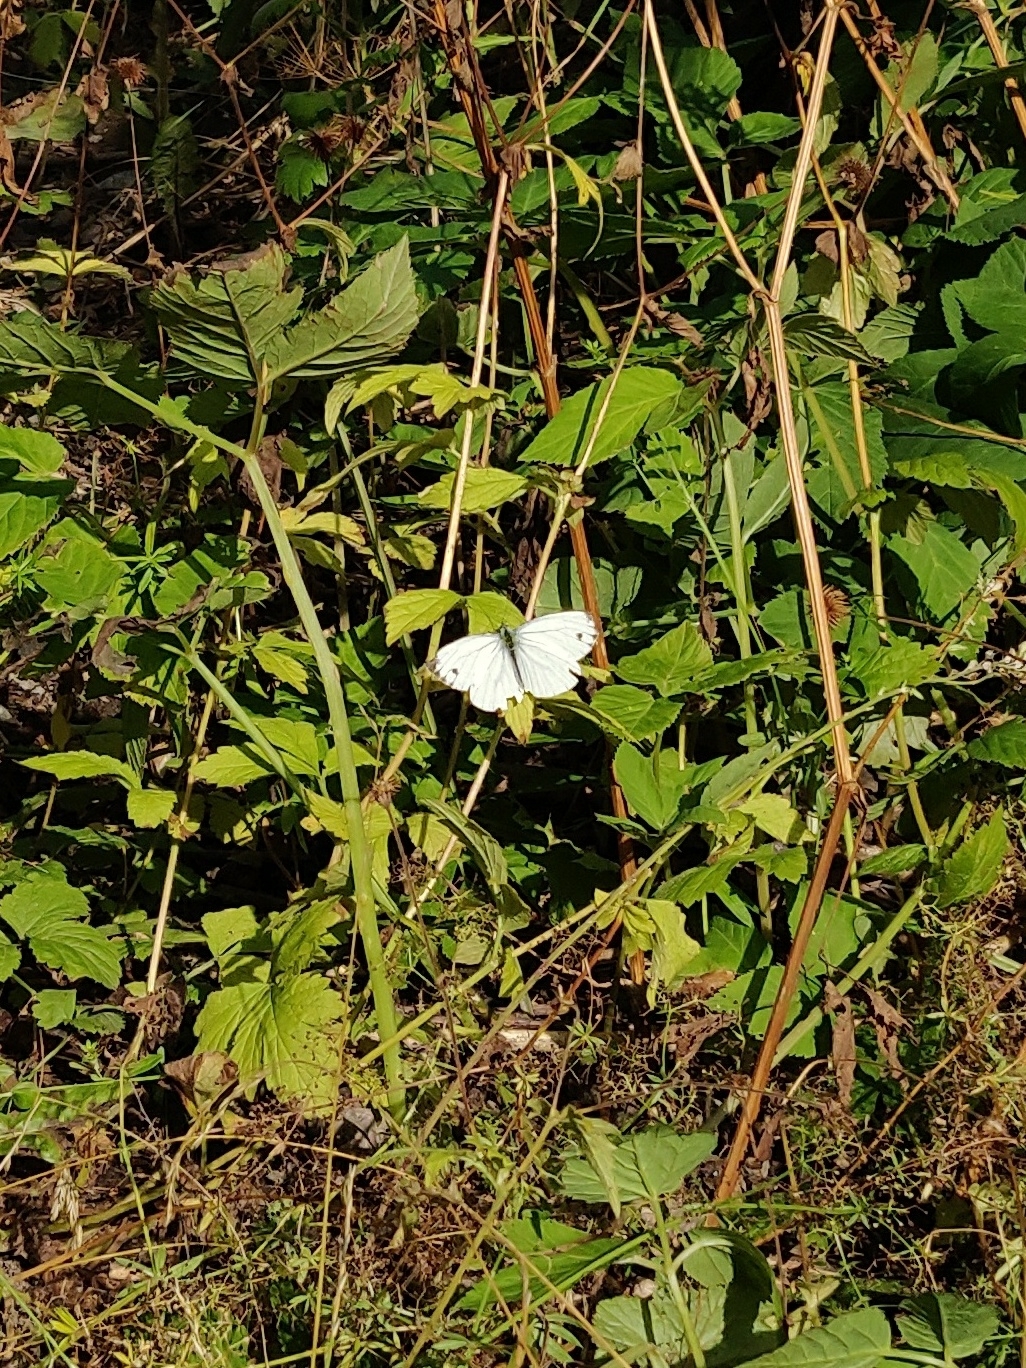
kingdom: Animalia
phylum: Arthropoda
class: Insecta
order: Lepidoptera
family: Pieridae
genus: Pieris
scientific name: Pieris napi
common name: Green-veined white
